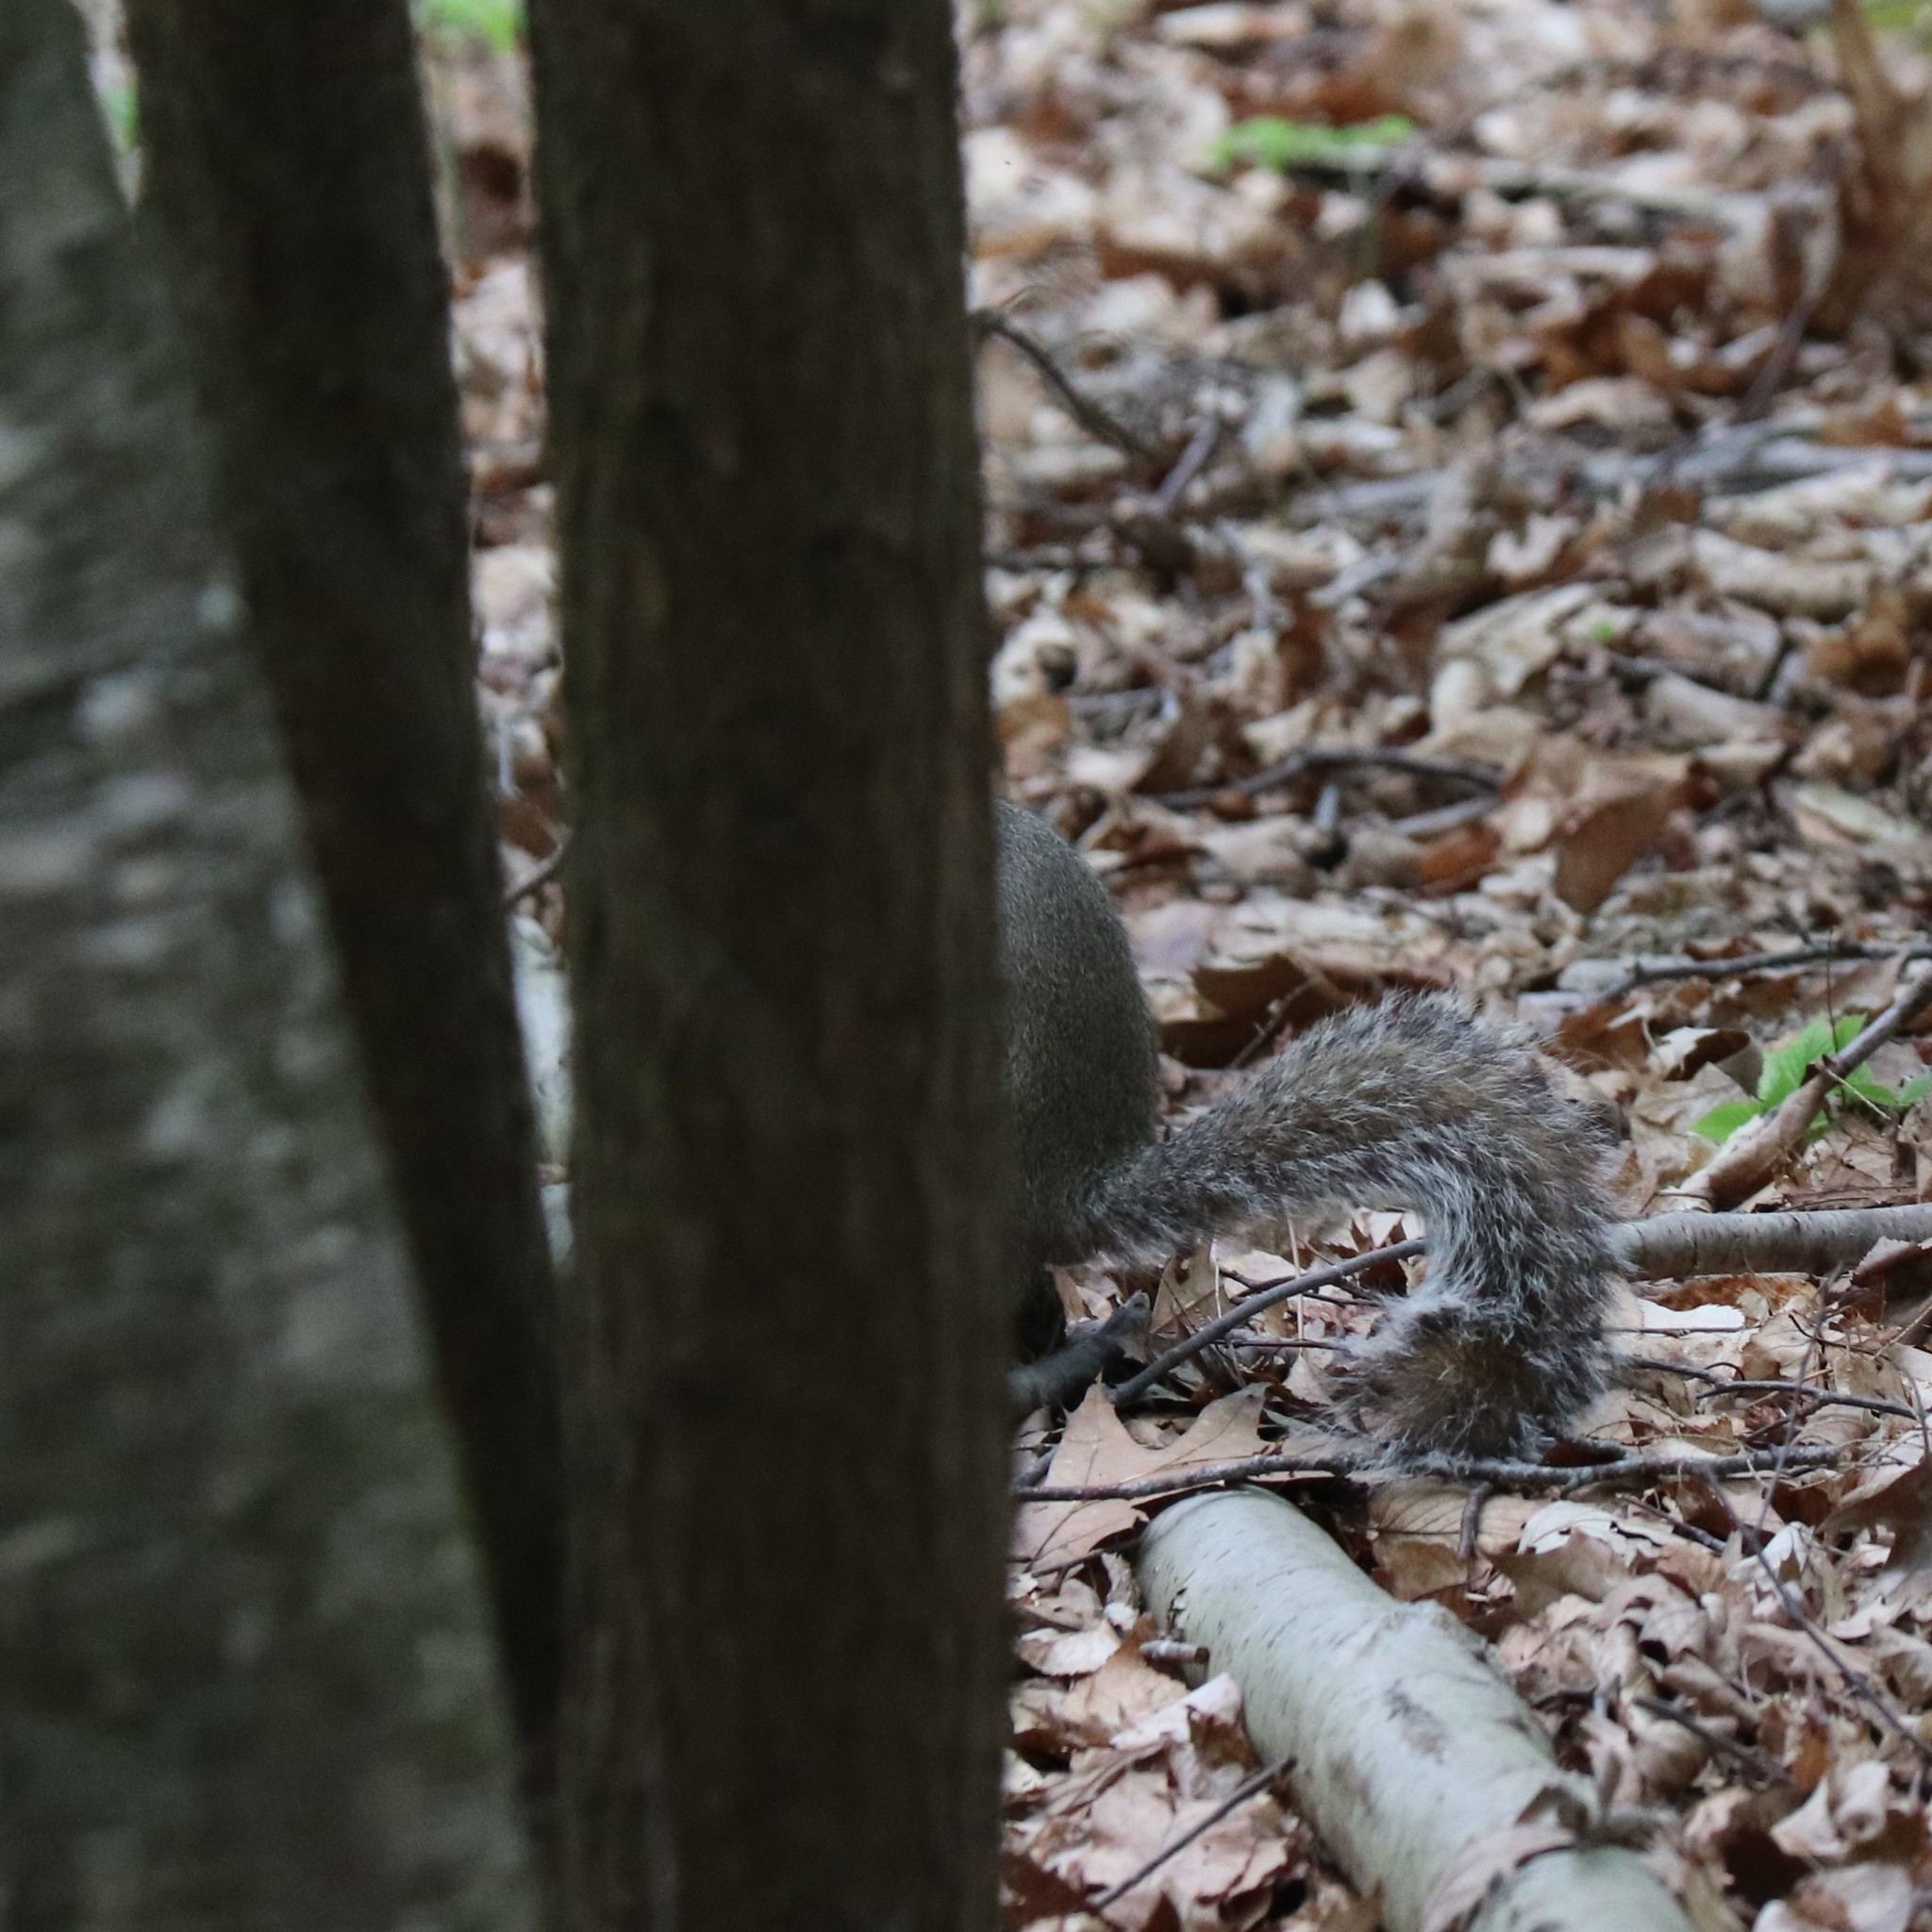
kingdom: Animalia
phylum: Chordata
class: Mammalia
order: Rodentia
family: Sciuridae
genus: Sciurus
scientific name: Sciurus carolinensis
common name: Eastern gray squirrel
